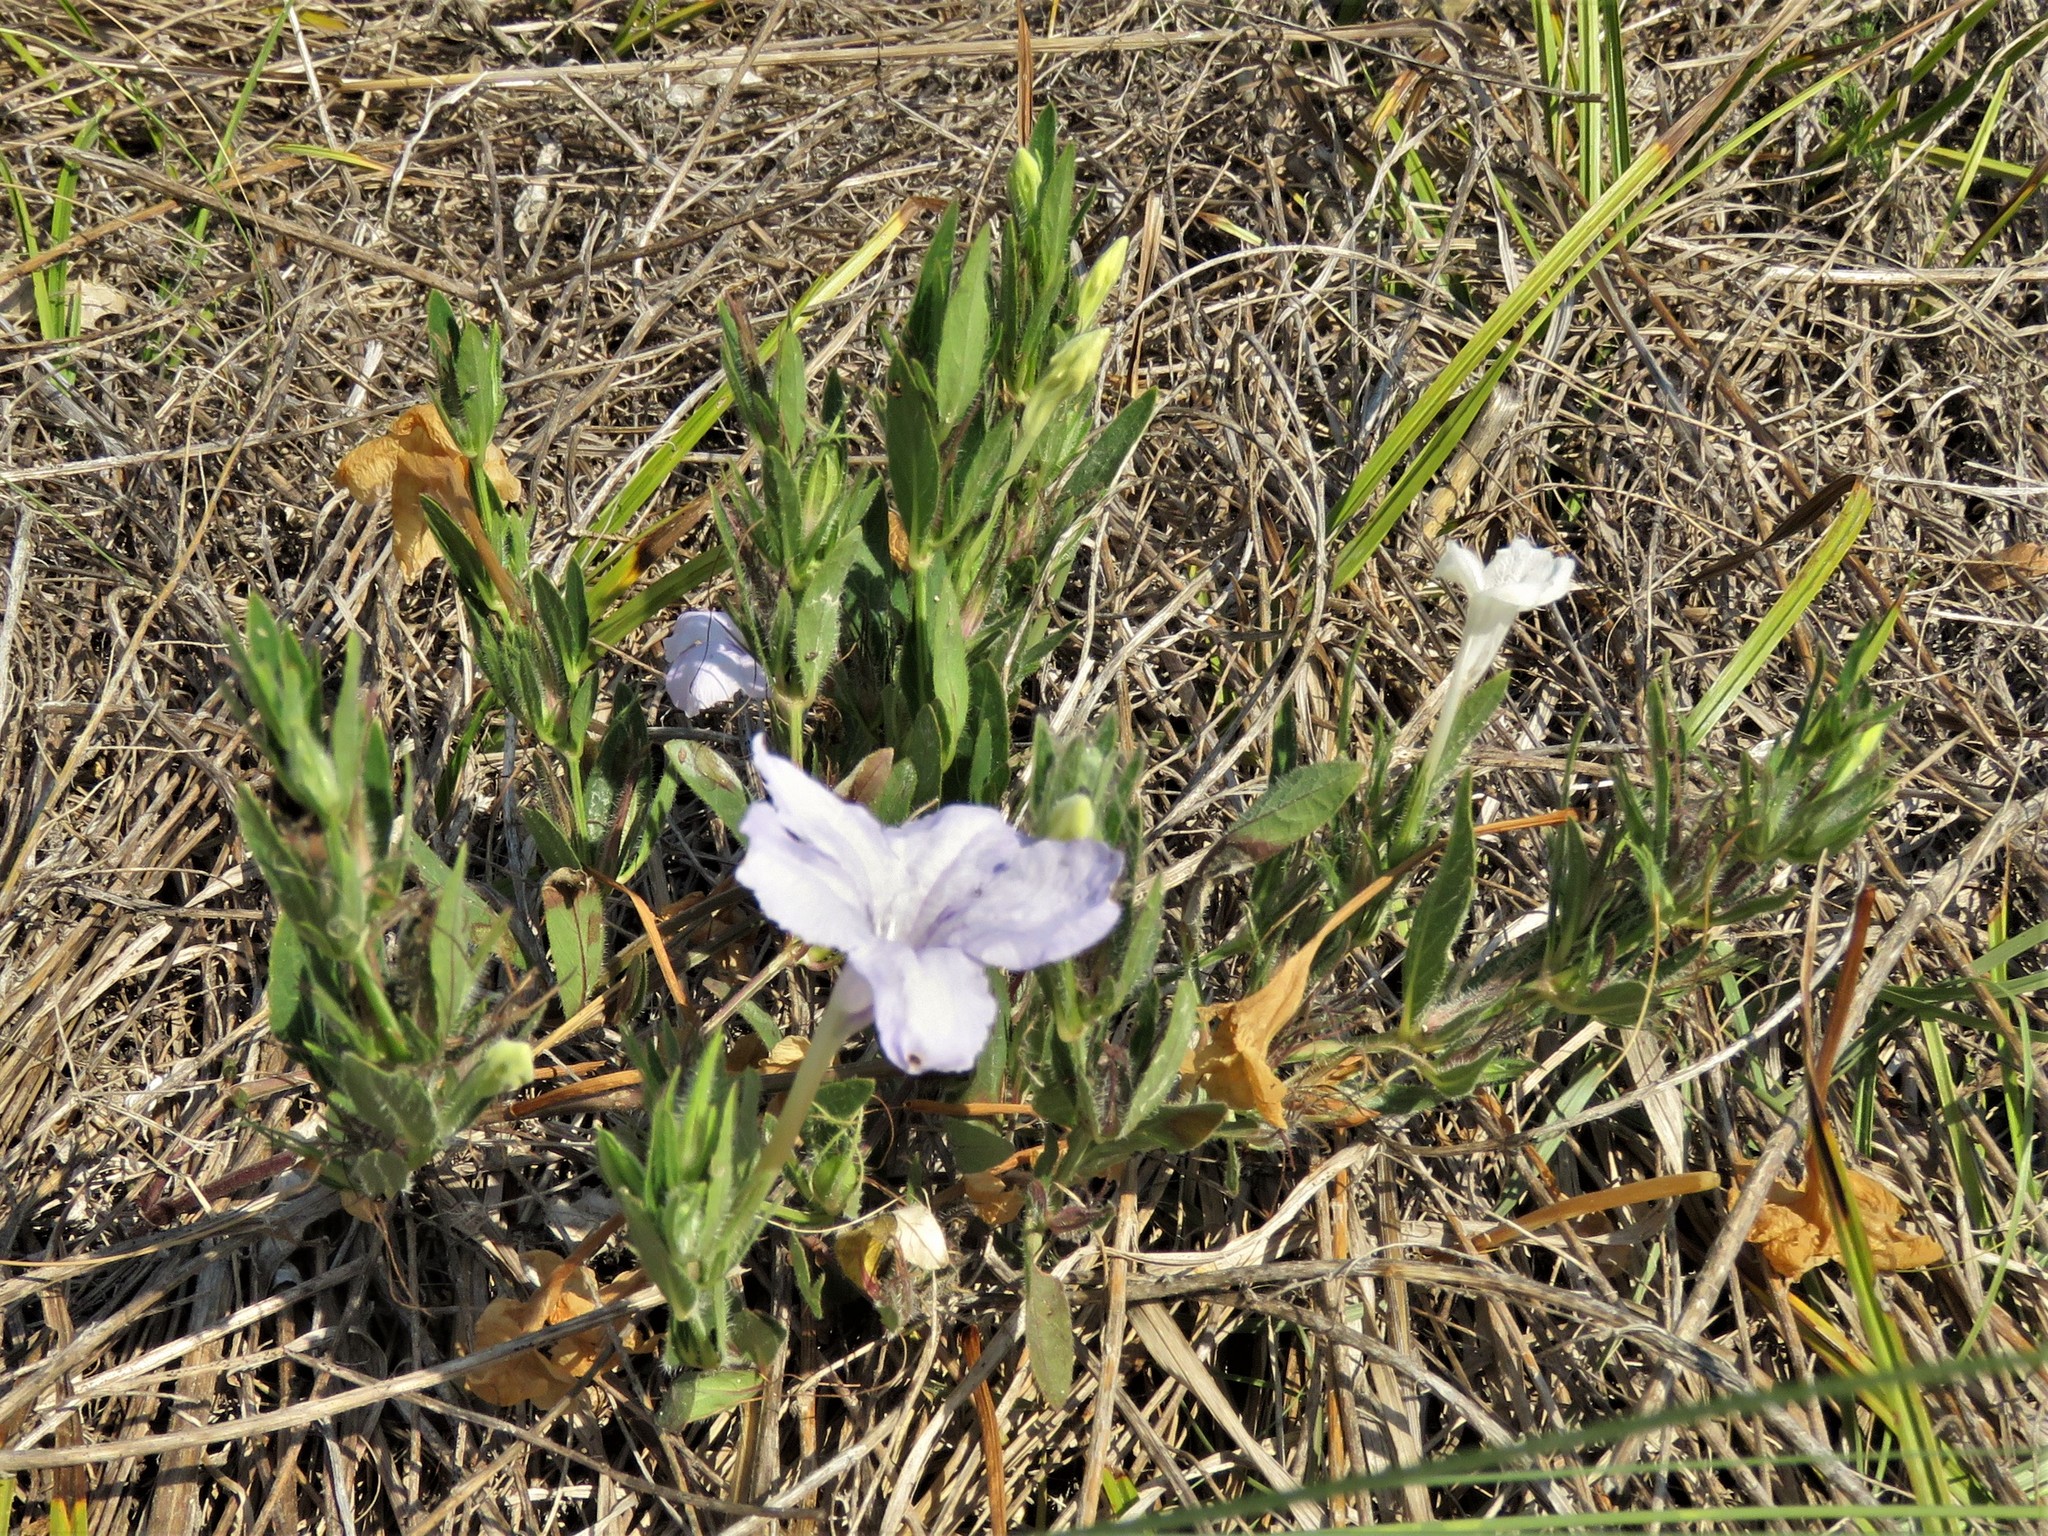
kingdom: Plantae
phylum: Tracheophyta
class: Magnoliopsida
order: Lamiales
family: Acanthaceae
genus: Ruellia
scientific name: Ruellia humilis
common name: Fringe-leaf ruellia
